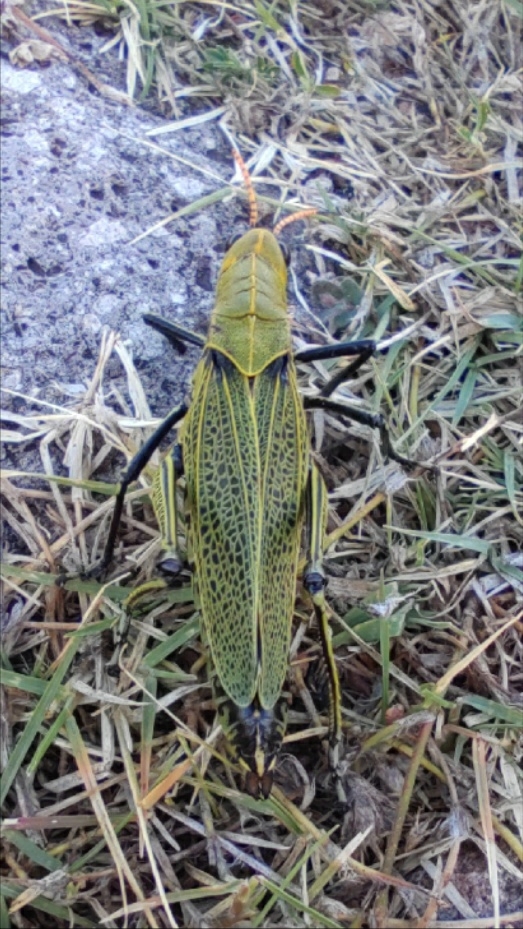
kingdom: Animalia
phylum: Arthropoda
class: Insecta
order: Orthoptera
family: Romaleidae
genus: Romalea
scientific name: Romalea
